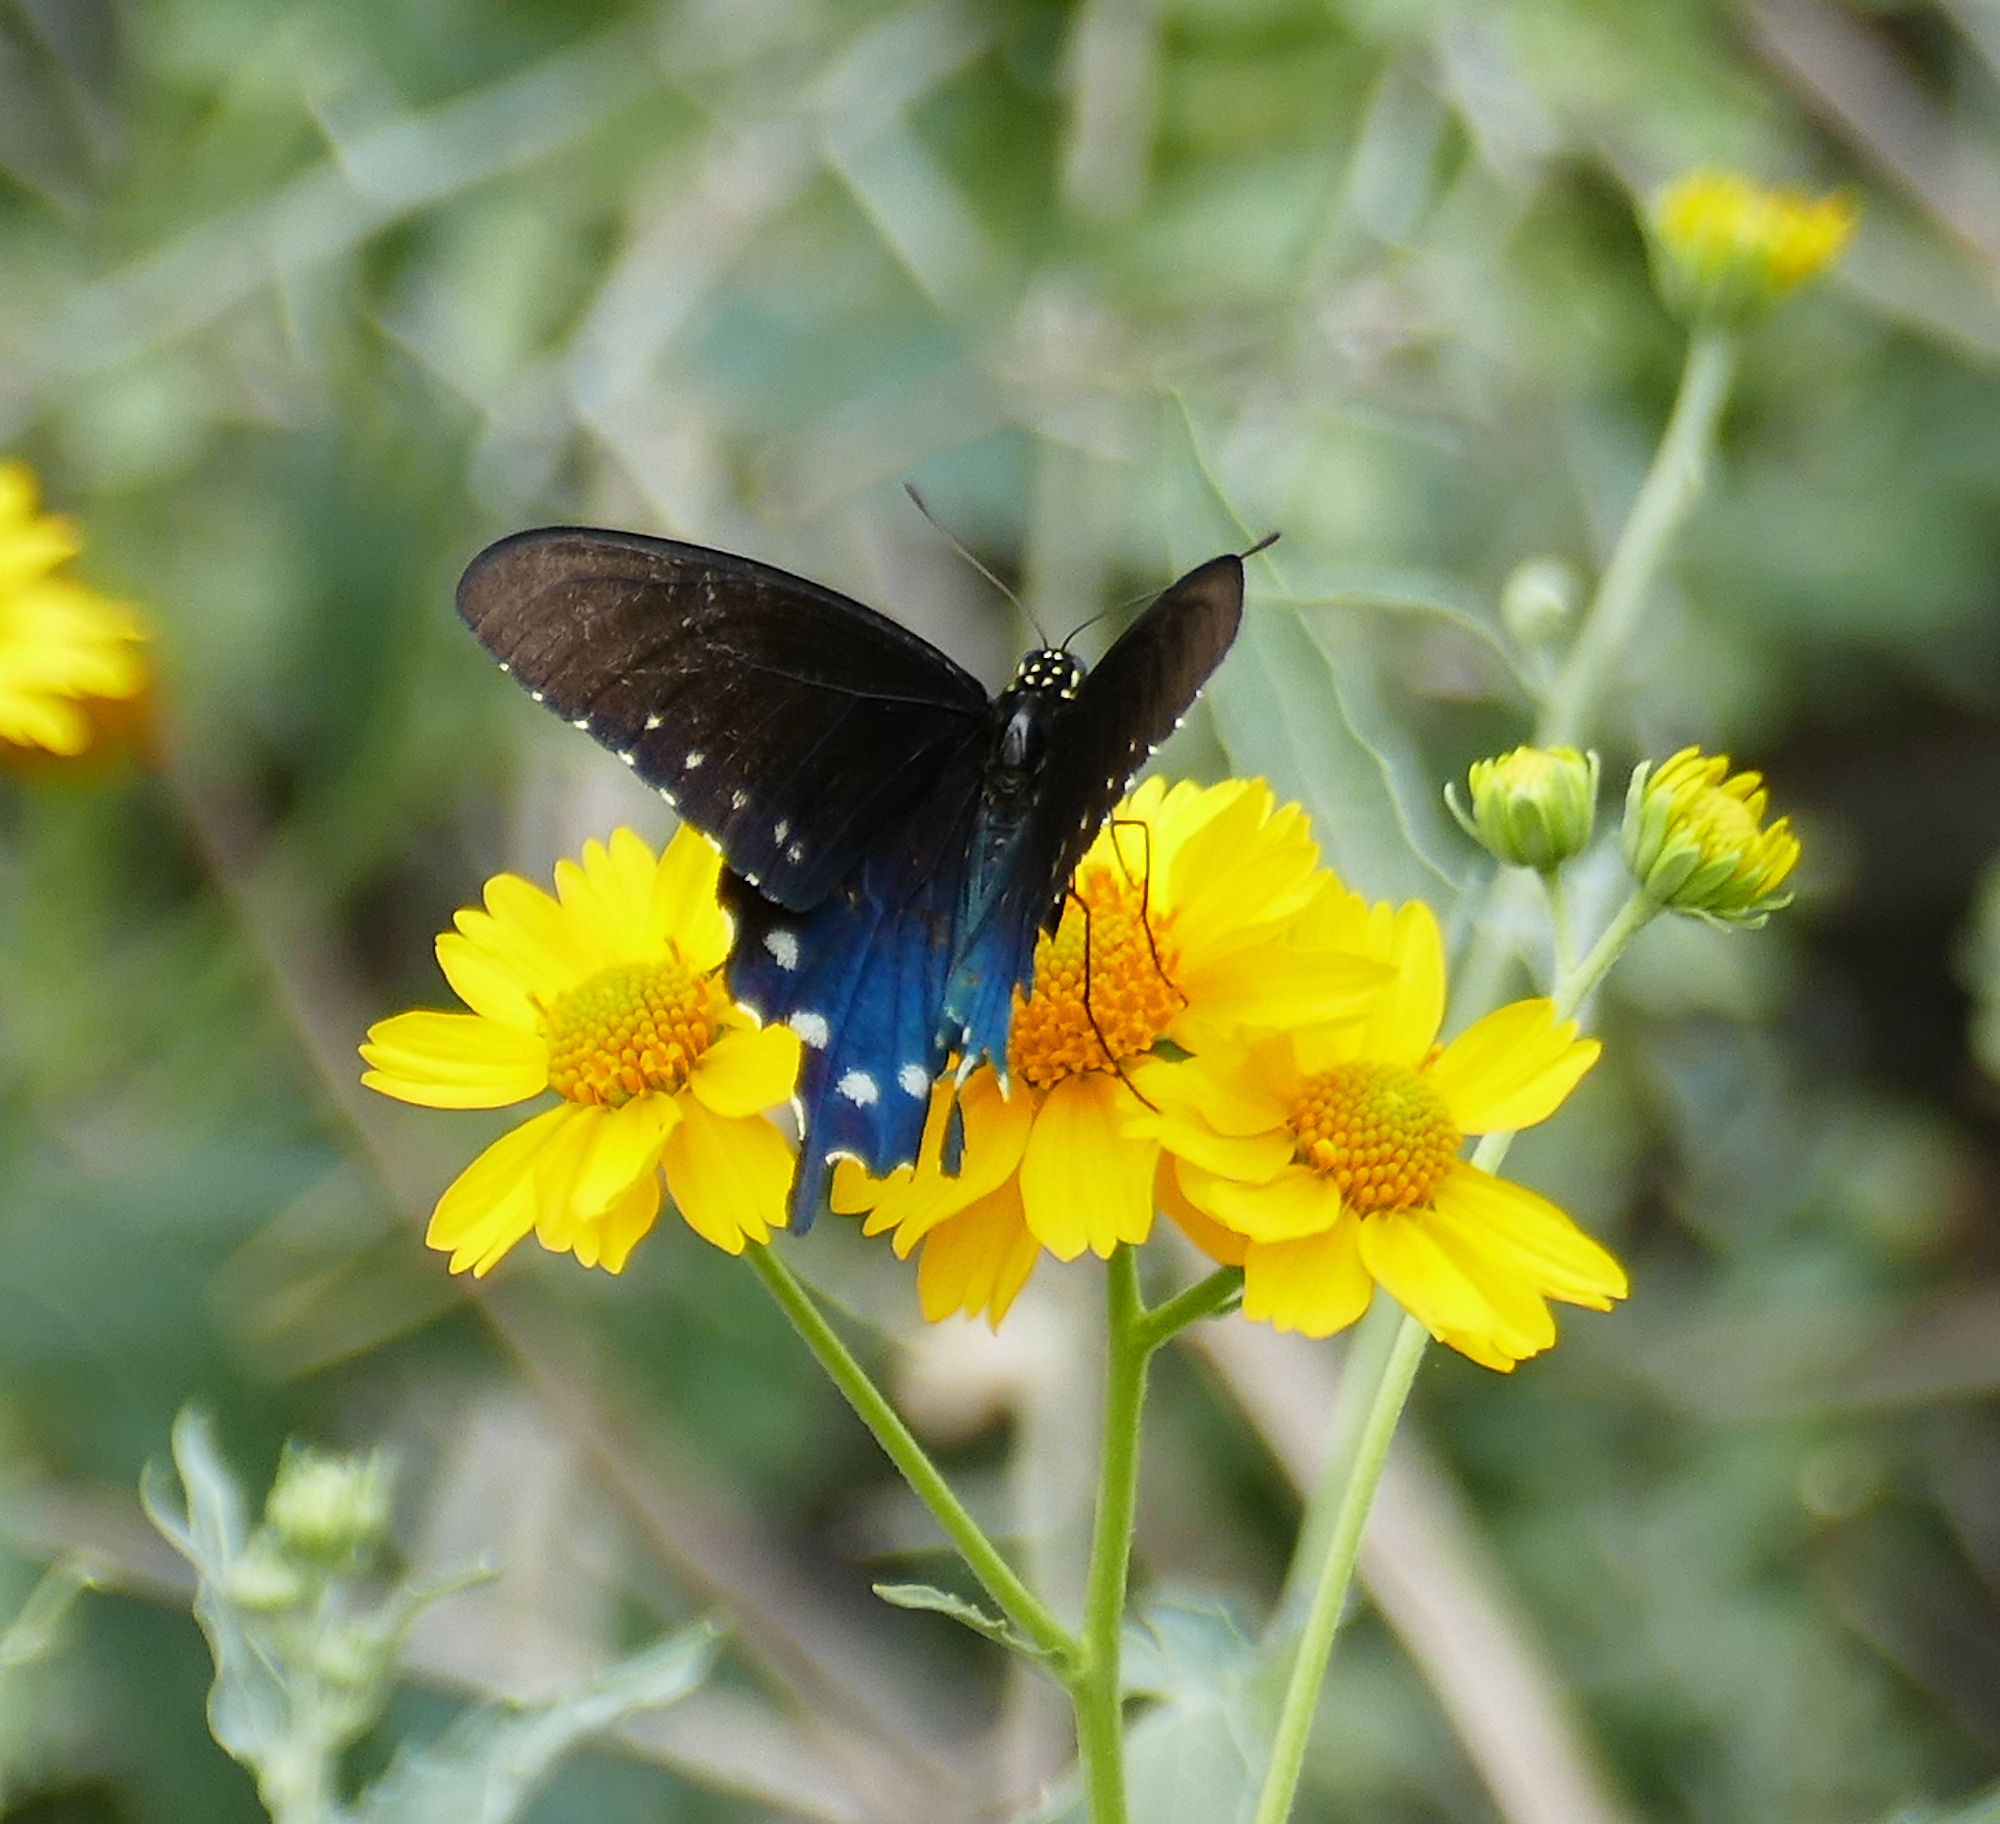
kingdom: Animalia
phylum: Arthropoda
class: Insecta
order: Lepidoptera
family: Papilionidae
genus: Battus
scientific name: Battus philenor
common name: Pipevine swallowtail
